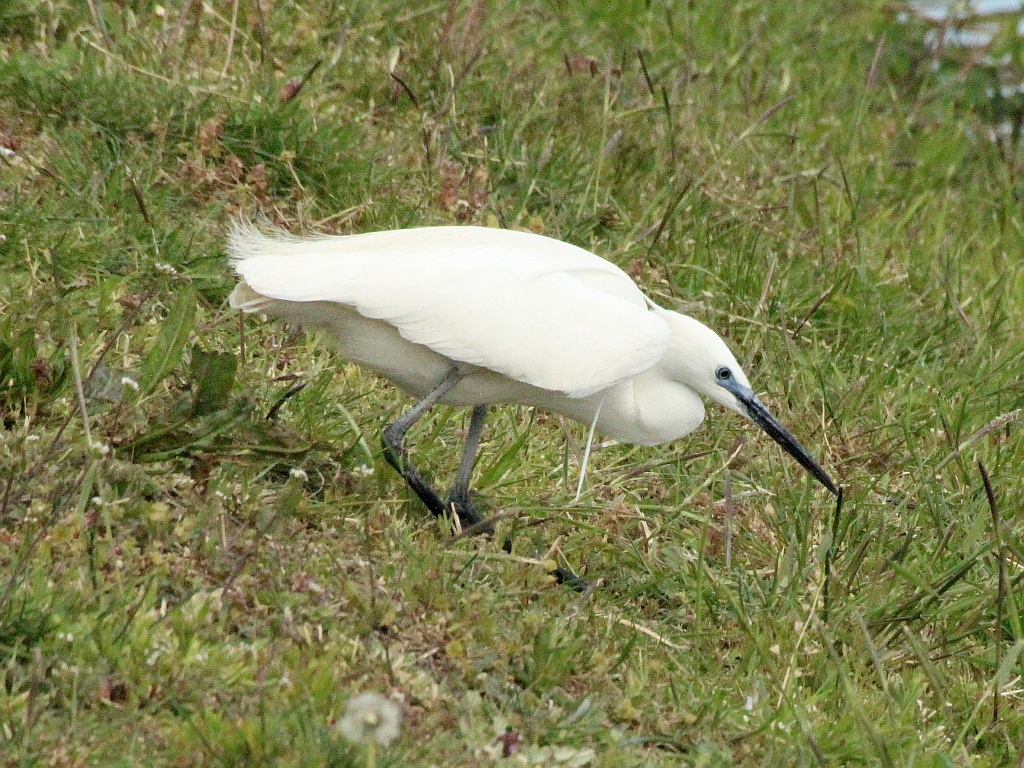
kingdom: Animalia
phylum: Chordata
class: Aves
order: Pelecaniformes
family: Ardeidae
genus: Egretta
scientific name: Egretta garzetta
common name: Little egret
